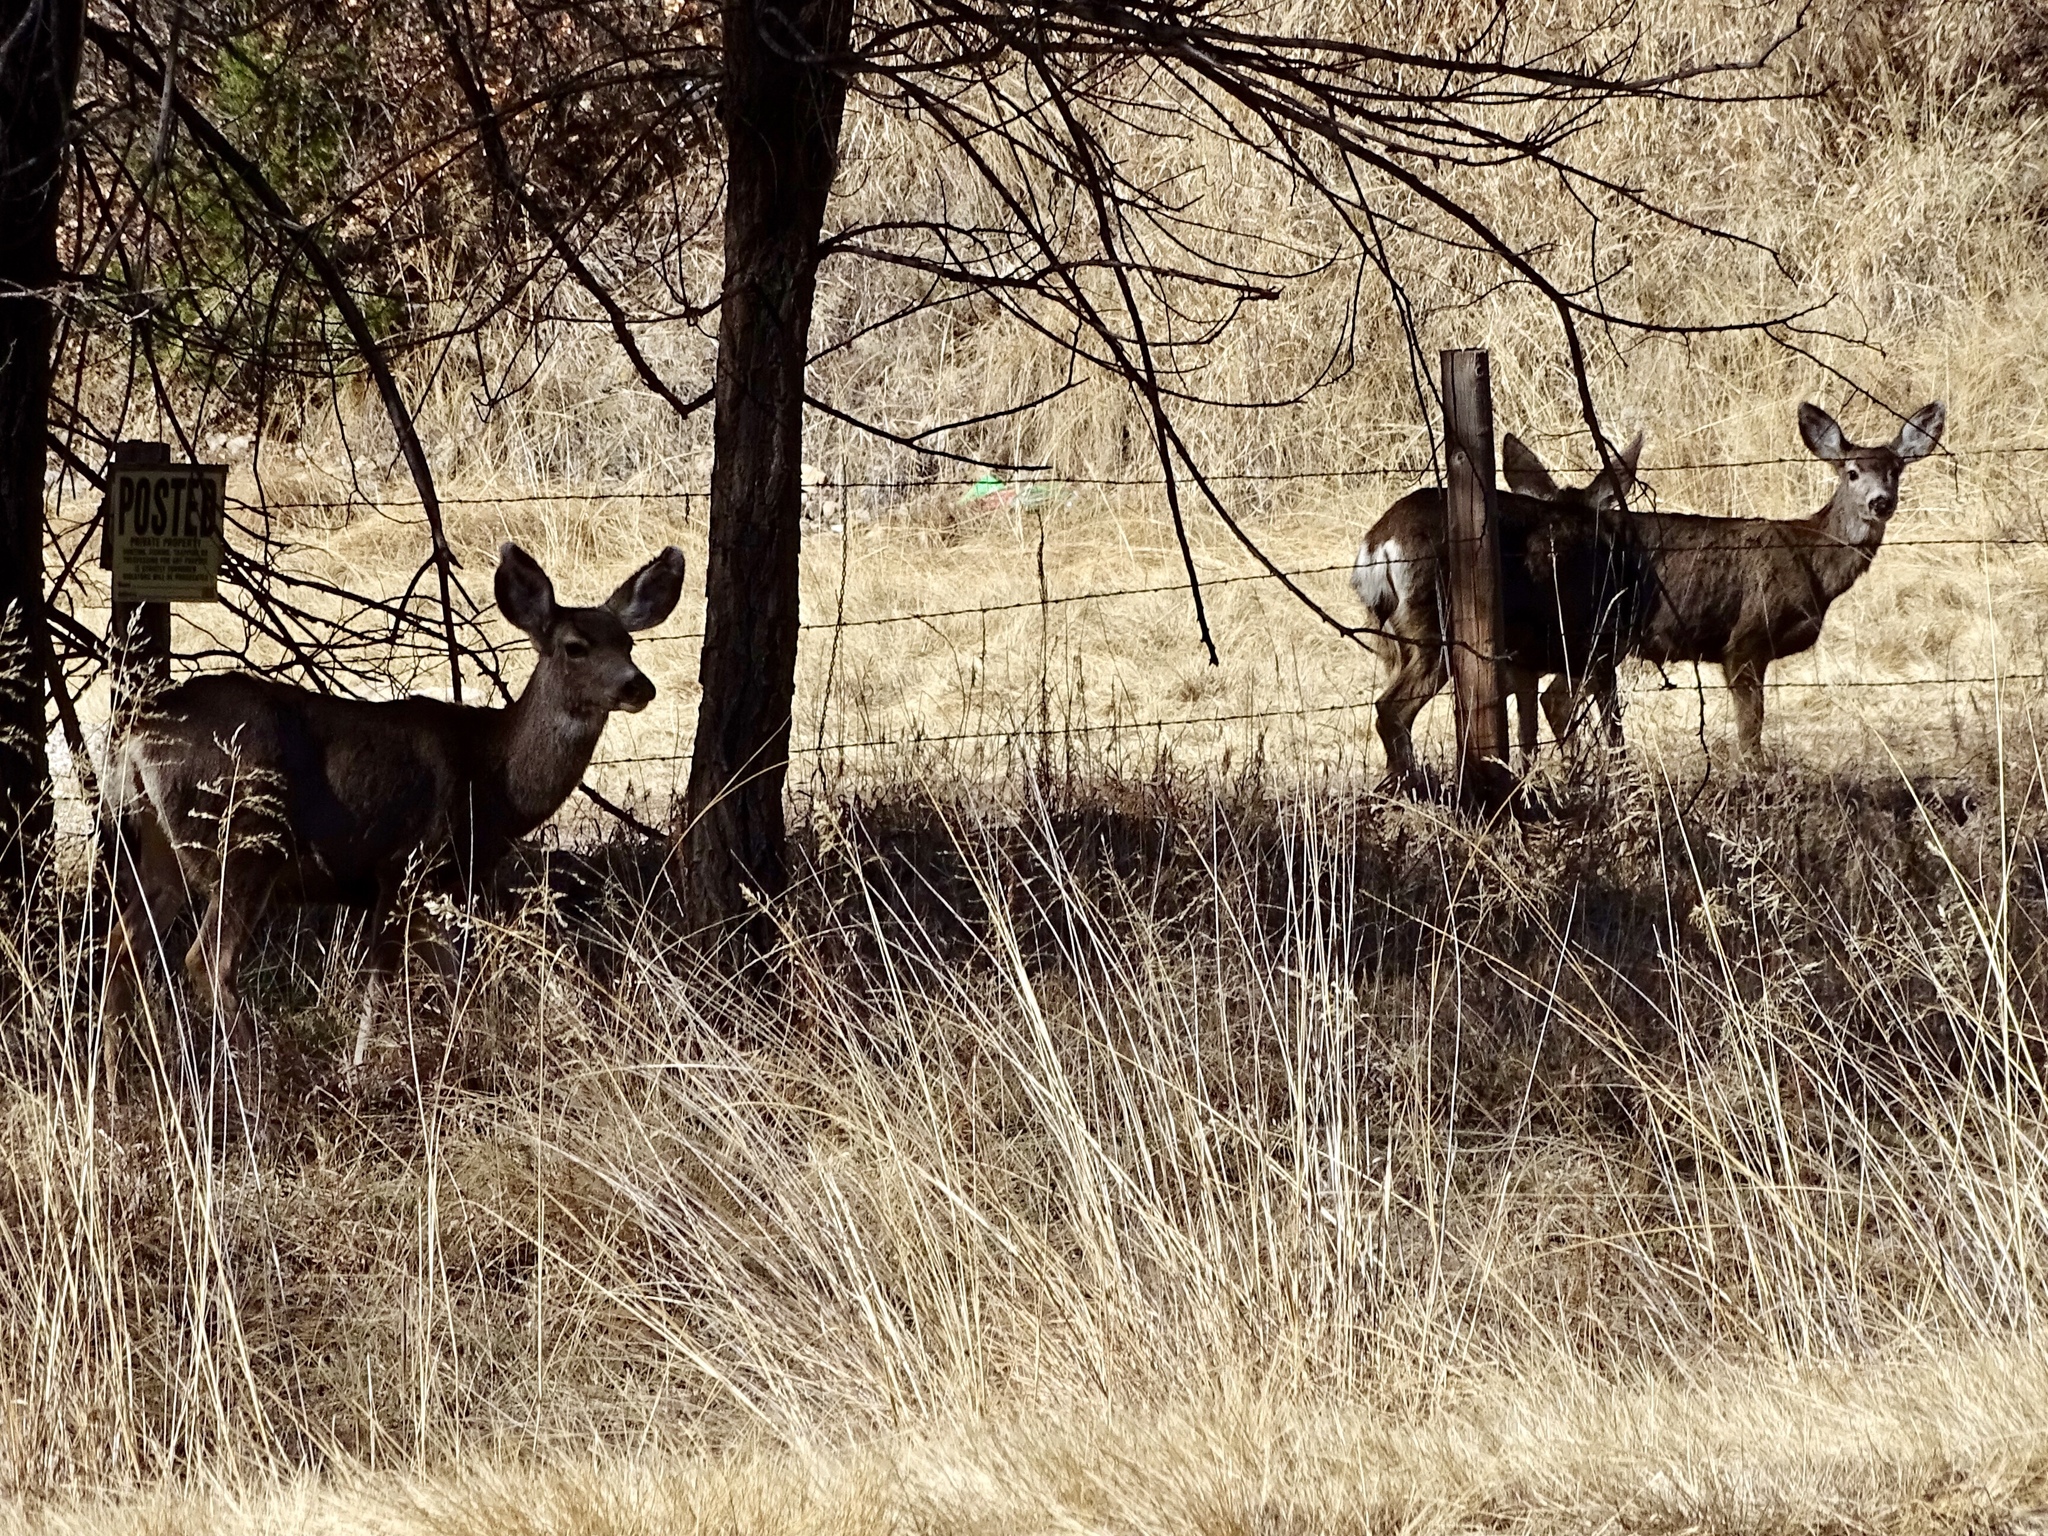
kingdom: Animalia
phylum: Chordata
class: Mammalia
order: Artiodactyla
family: Cervidae
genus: Odocoileus
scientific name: Odocoileus hemionus
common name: Mule deer
